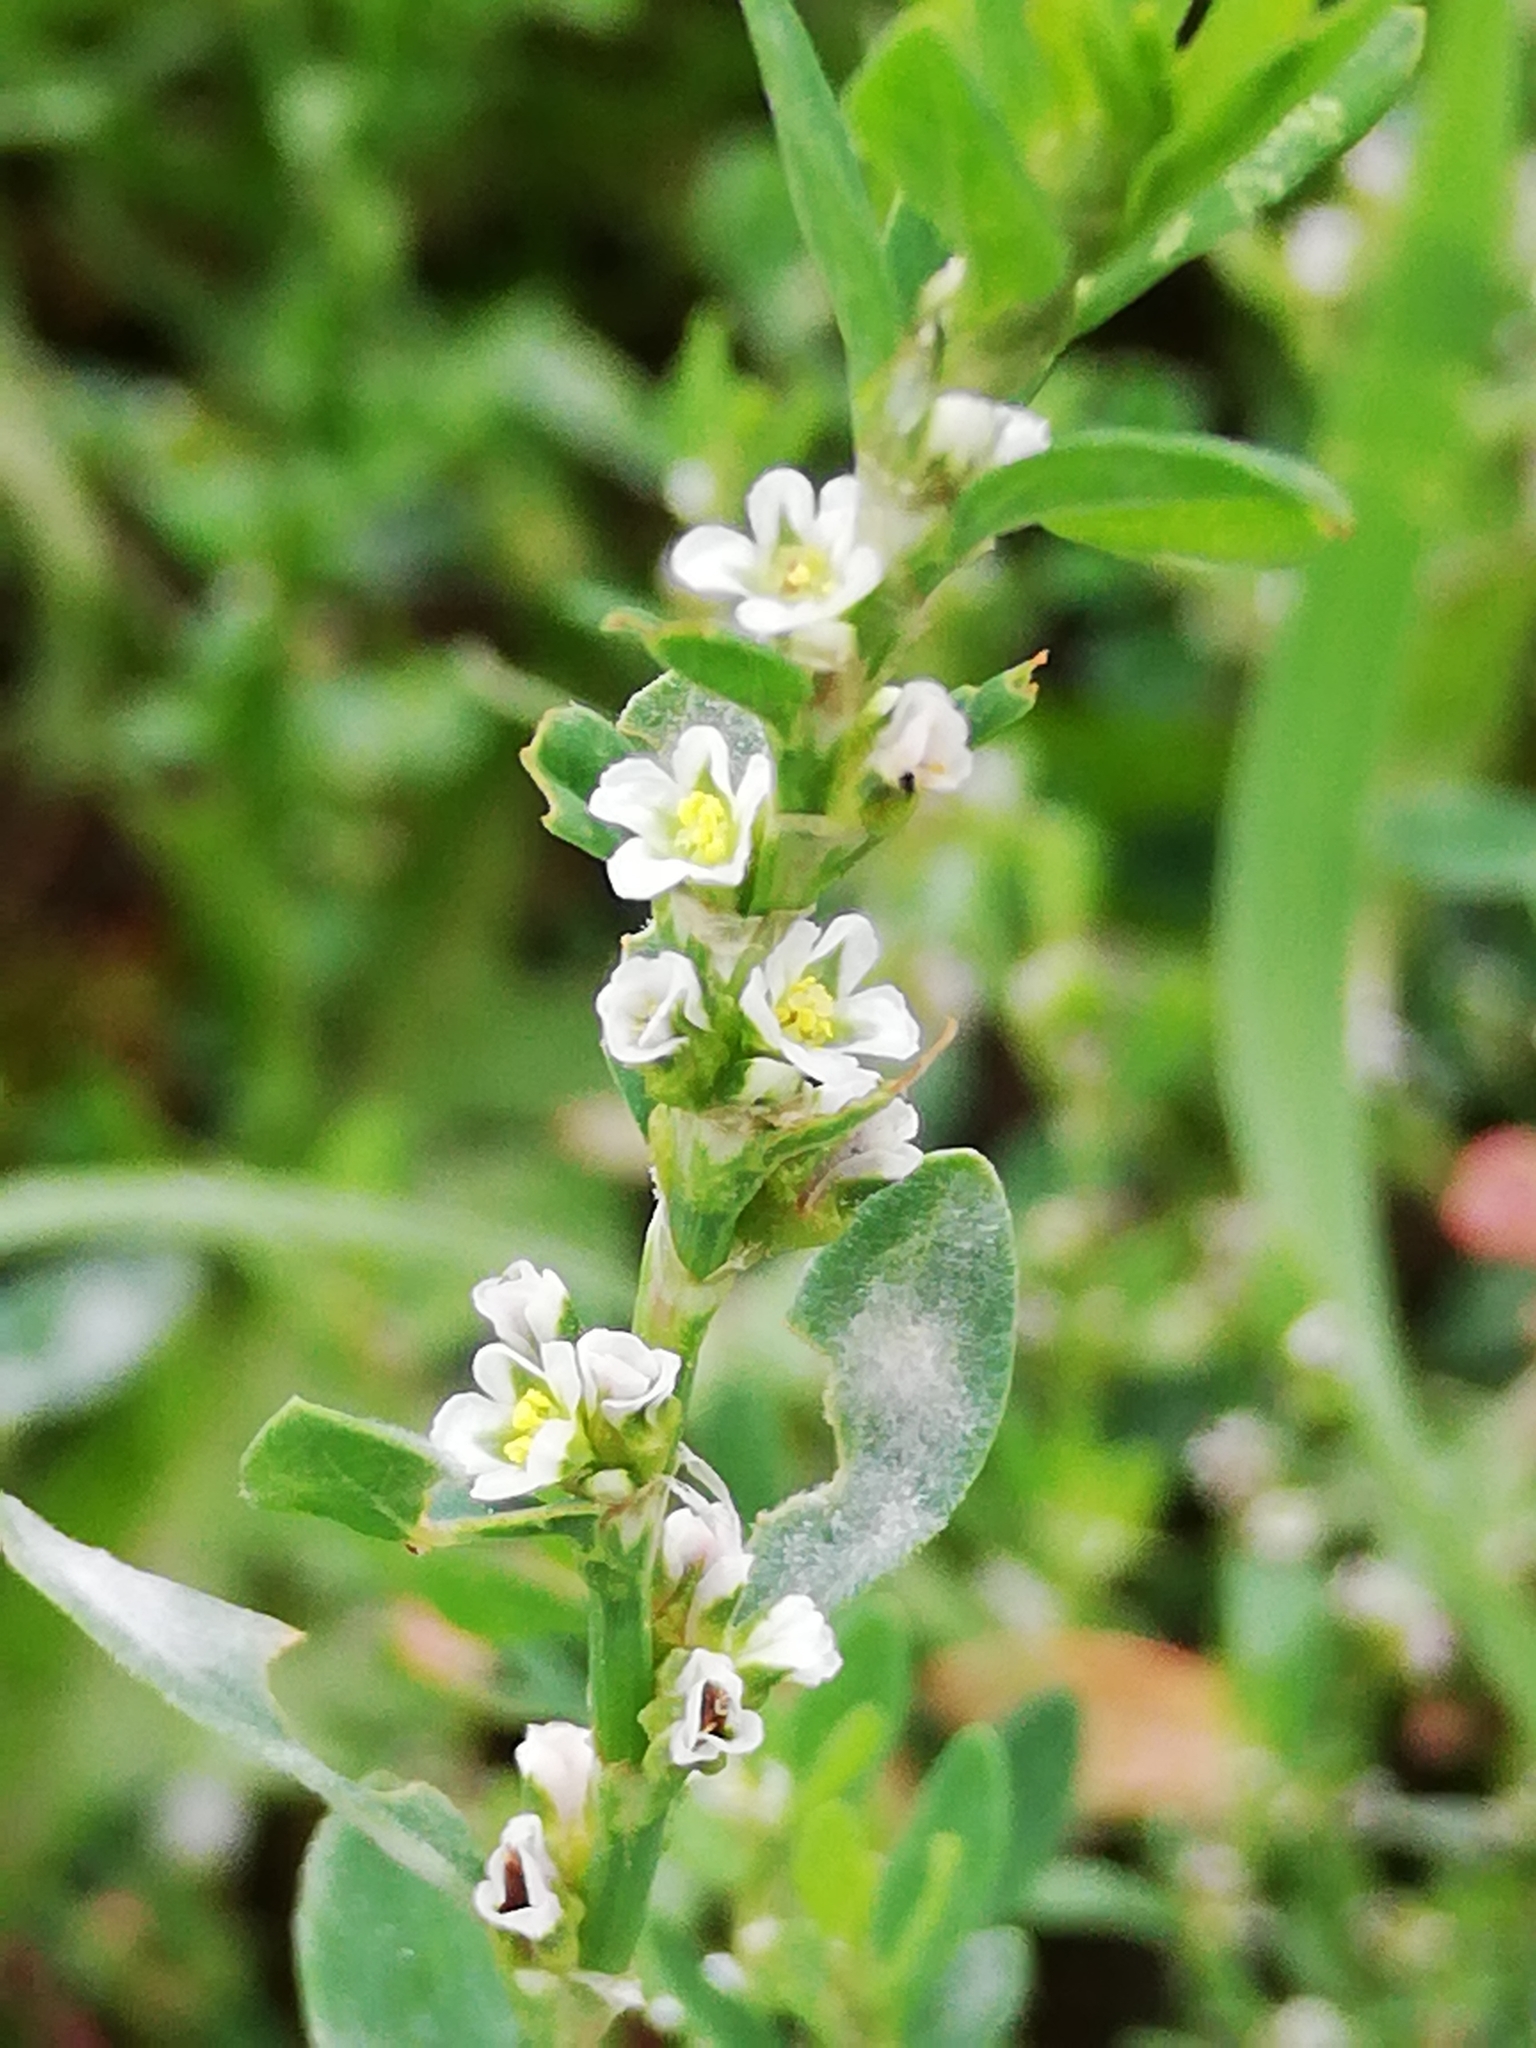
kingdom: Plantae
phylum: Tracheophyta
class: Magnoliopsida
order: Caryophyllales
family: Polygonaceae
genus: Polygonum
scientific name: Polygonum arenastrum
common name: Equal-leaved knotgrass
